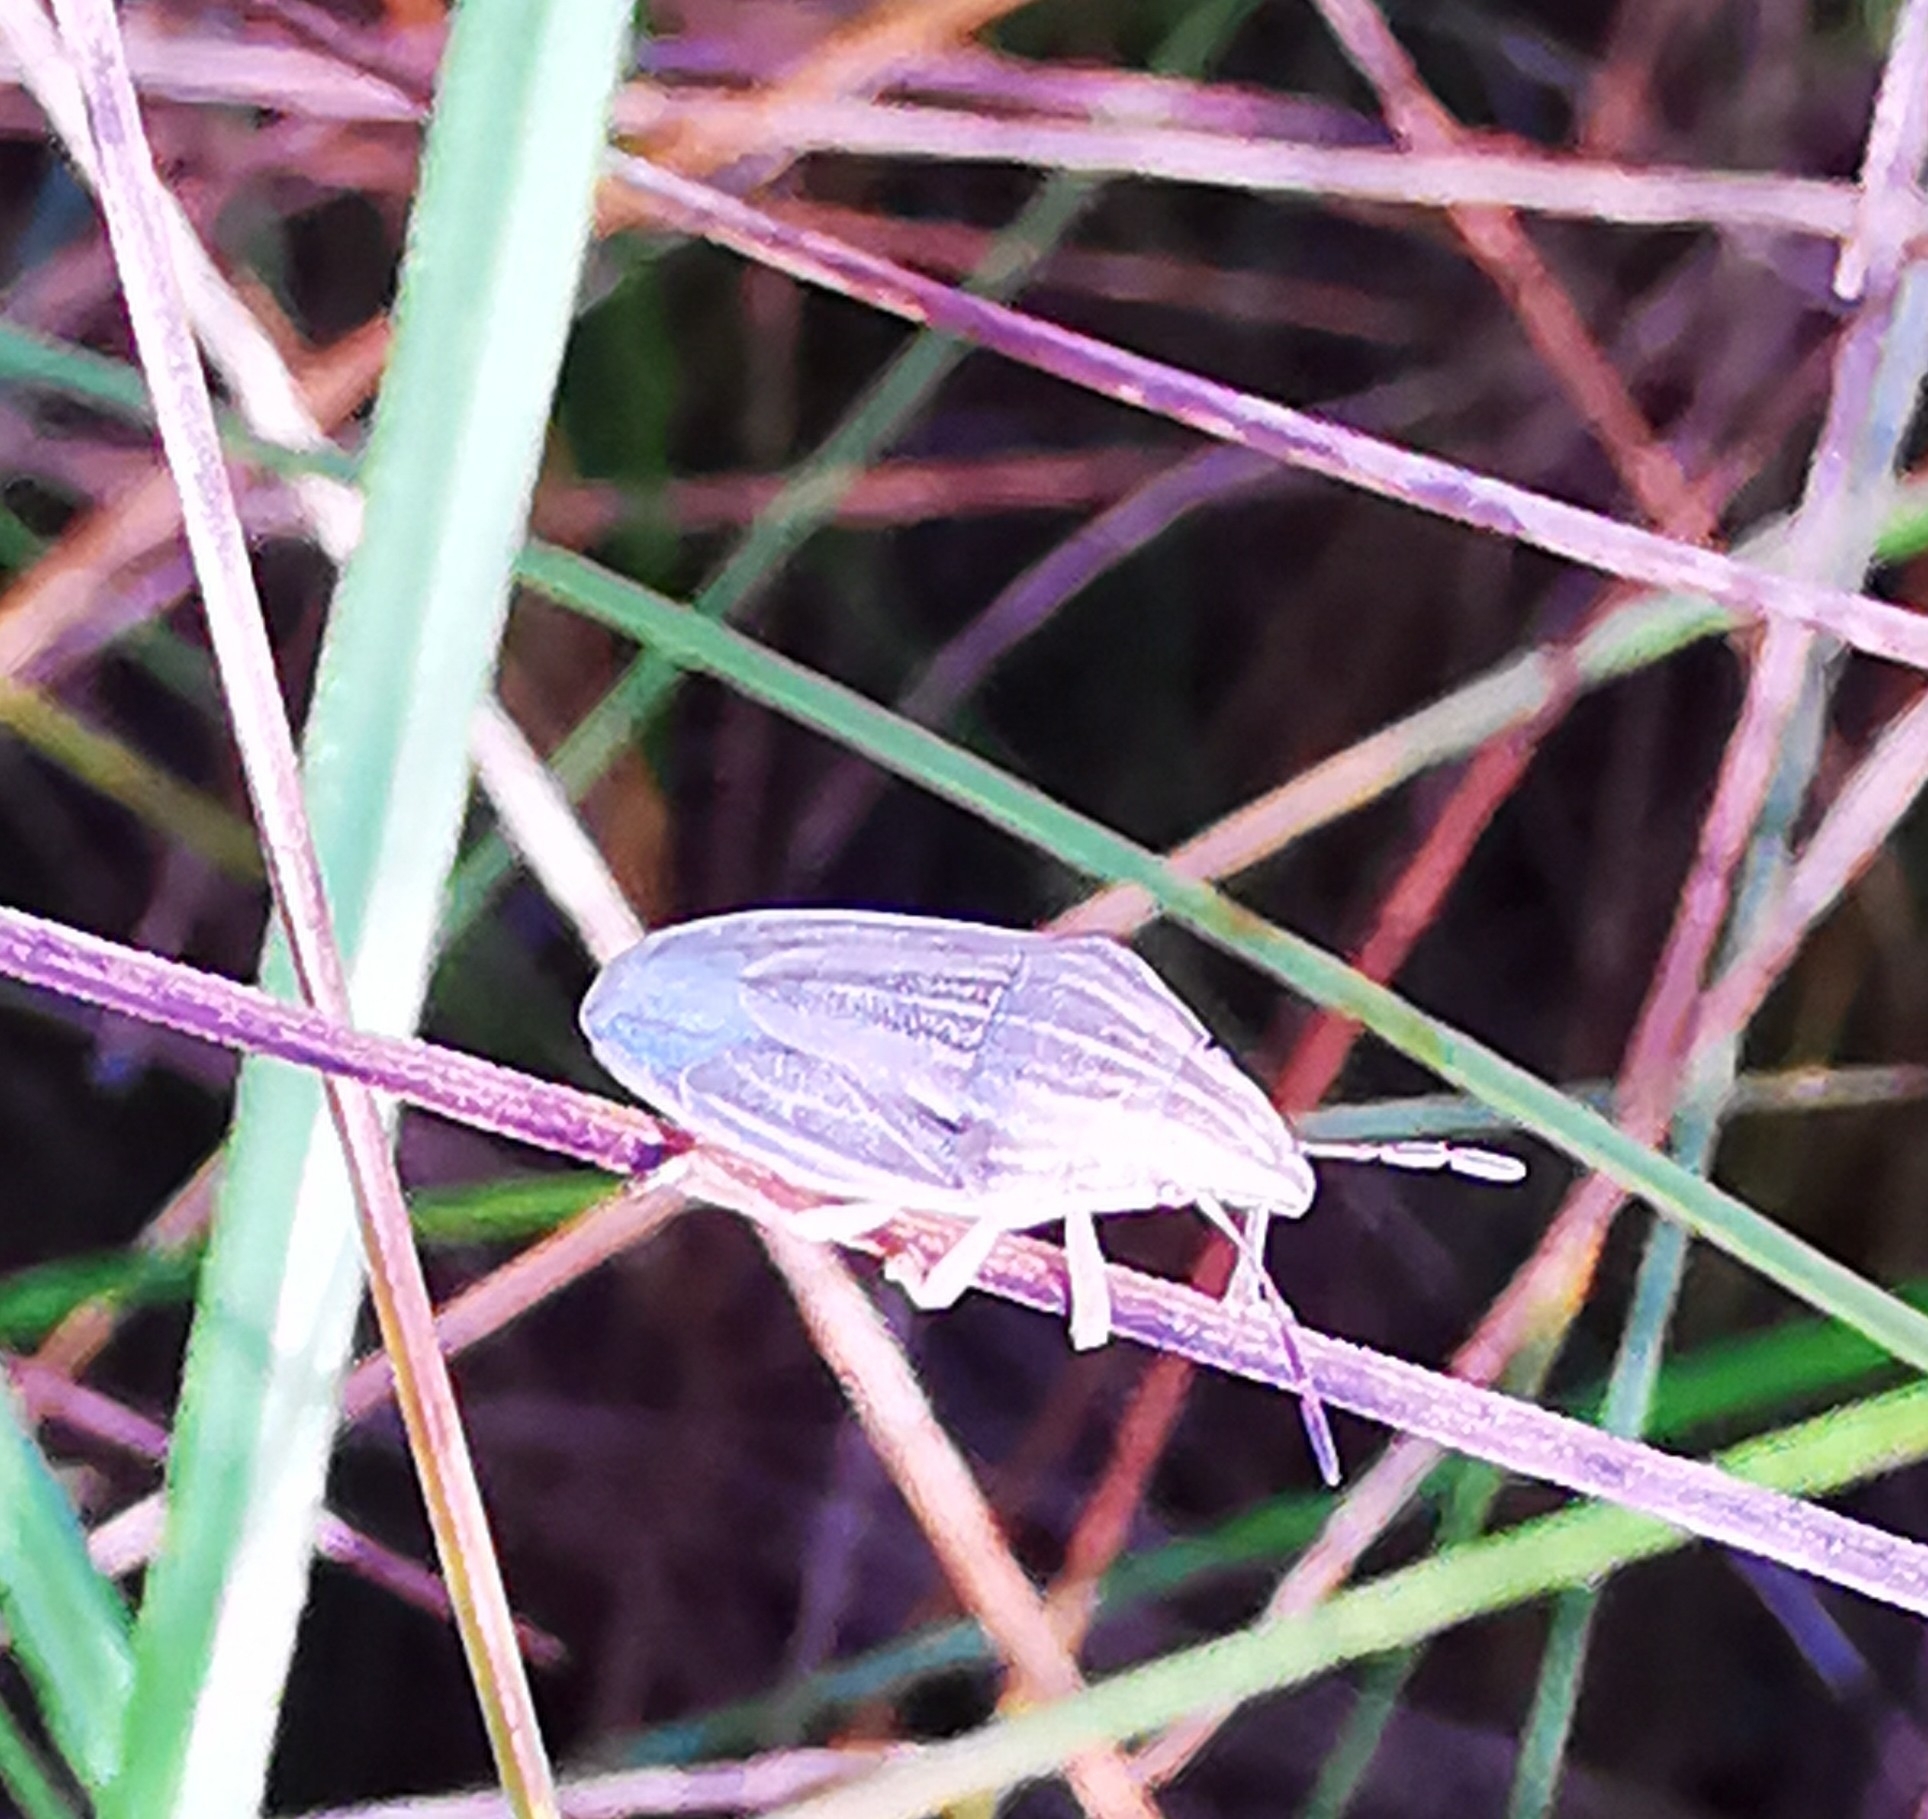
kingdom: Animalia
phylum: Arthropoda
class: Insecta
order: Hemiptera
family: Pentatomidae
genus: Aelia
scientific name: Aelia acuminata
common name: Bishop's mitre
